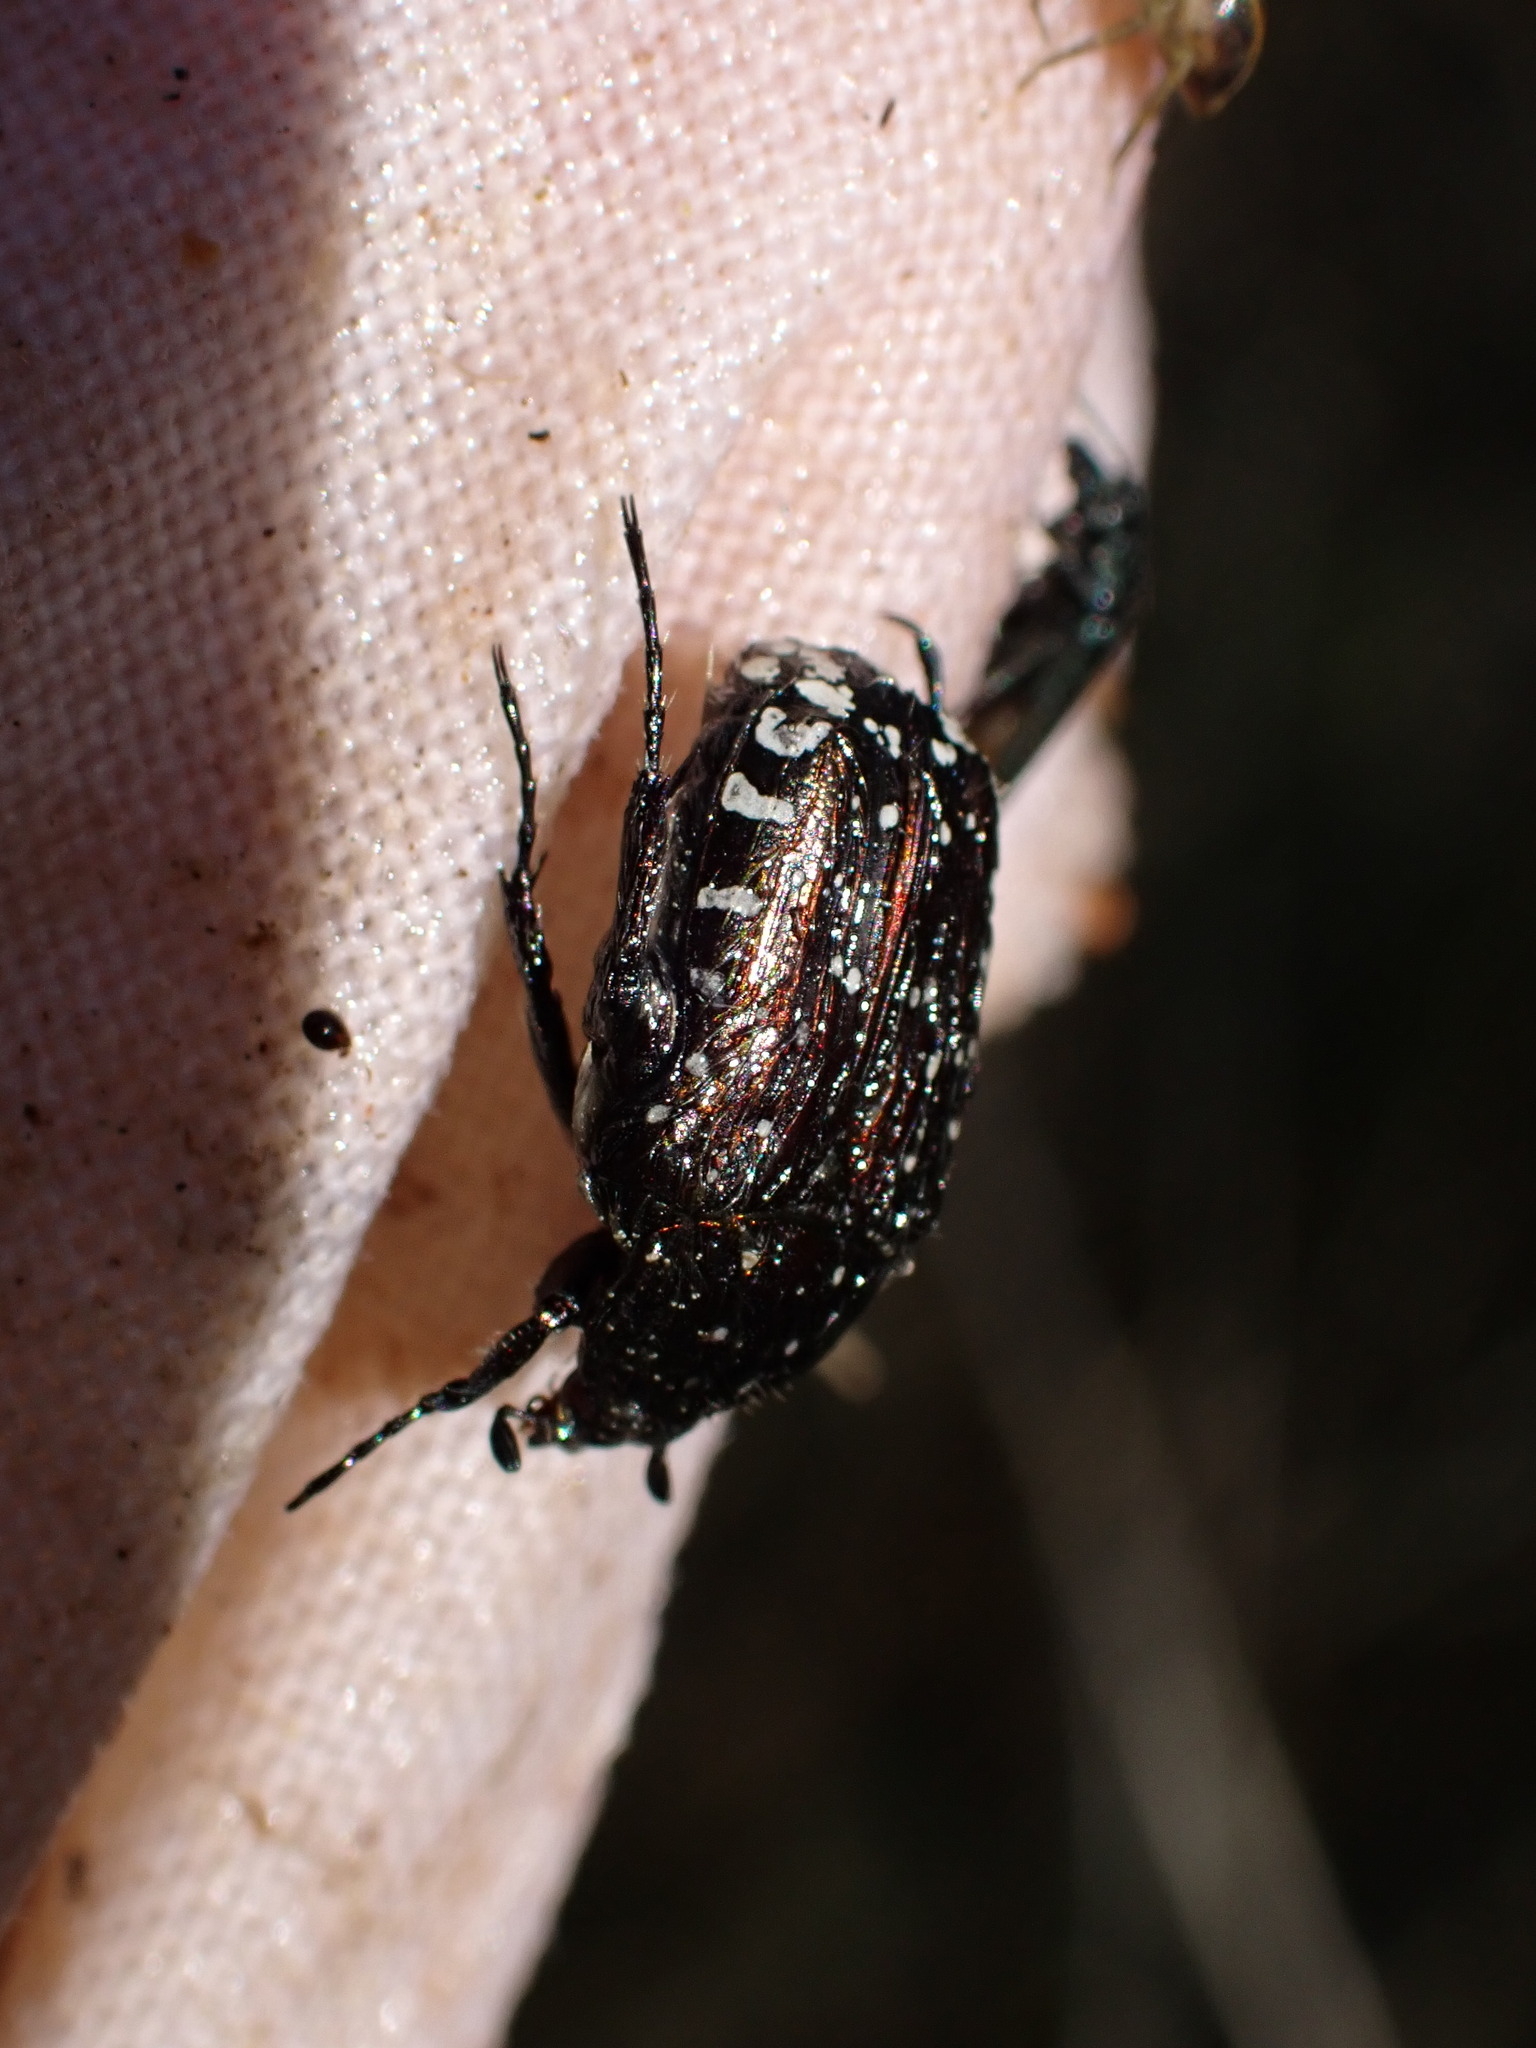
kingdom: Animalia
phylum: Arthropoda
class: Insecta
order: Coleoptera
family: Scarabaeidae
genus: Oxythyrea
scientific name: Oxythyrea funesta
